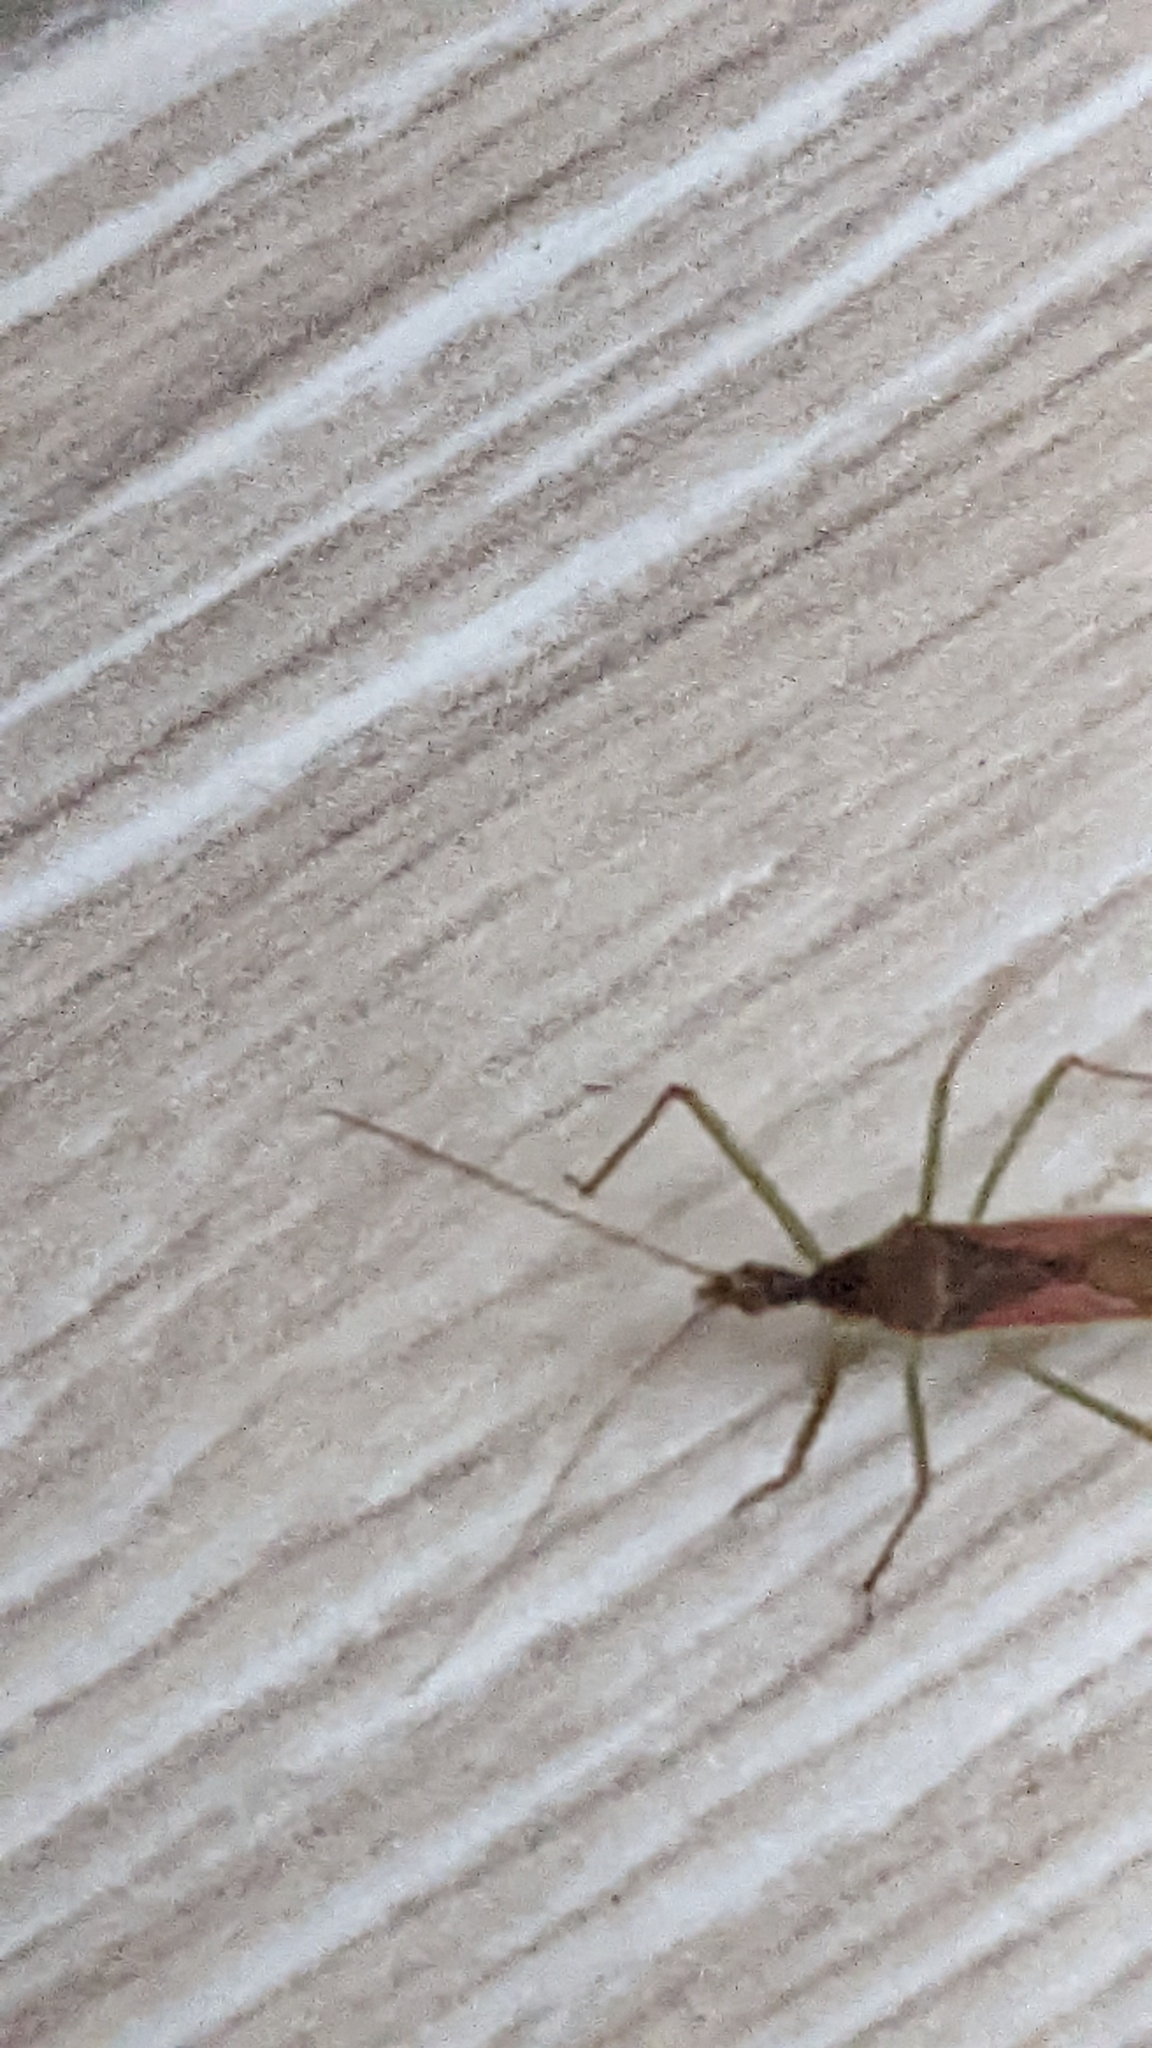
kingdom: Animalia
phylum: Arthropoda
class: Insecta
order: Hemiptera
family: Reduviidae
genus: Zelus
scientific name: Zelus renardii
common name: Assassin bug
